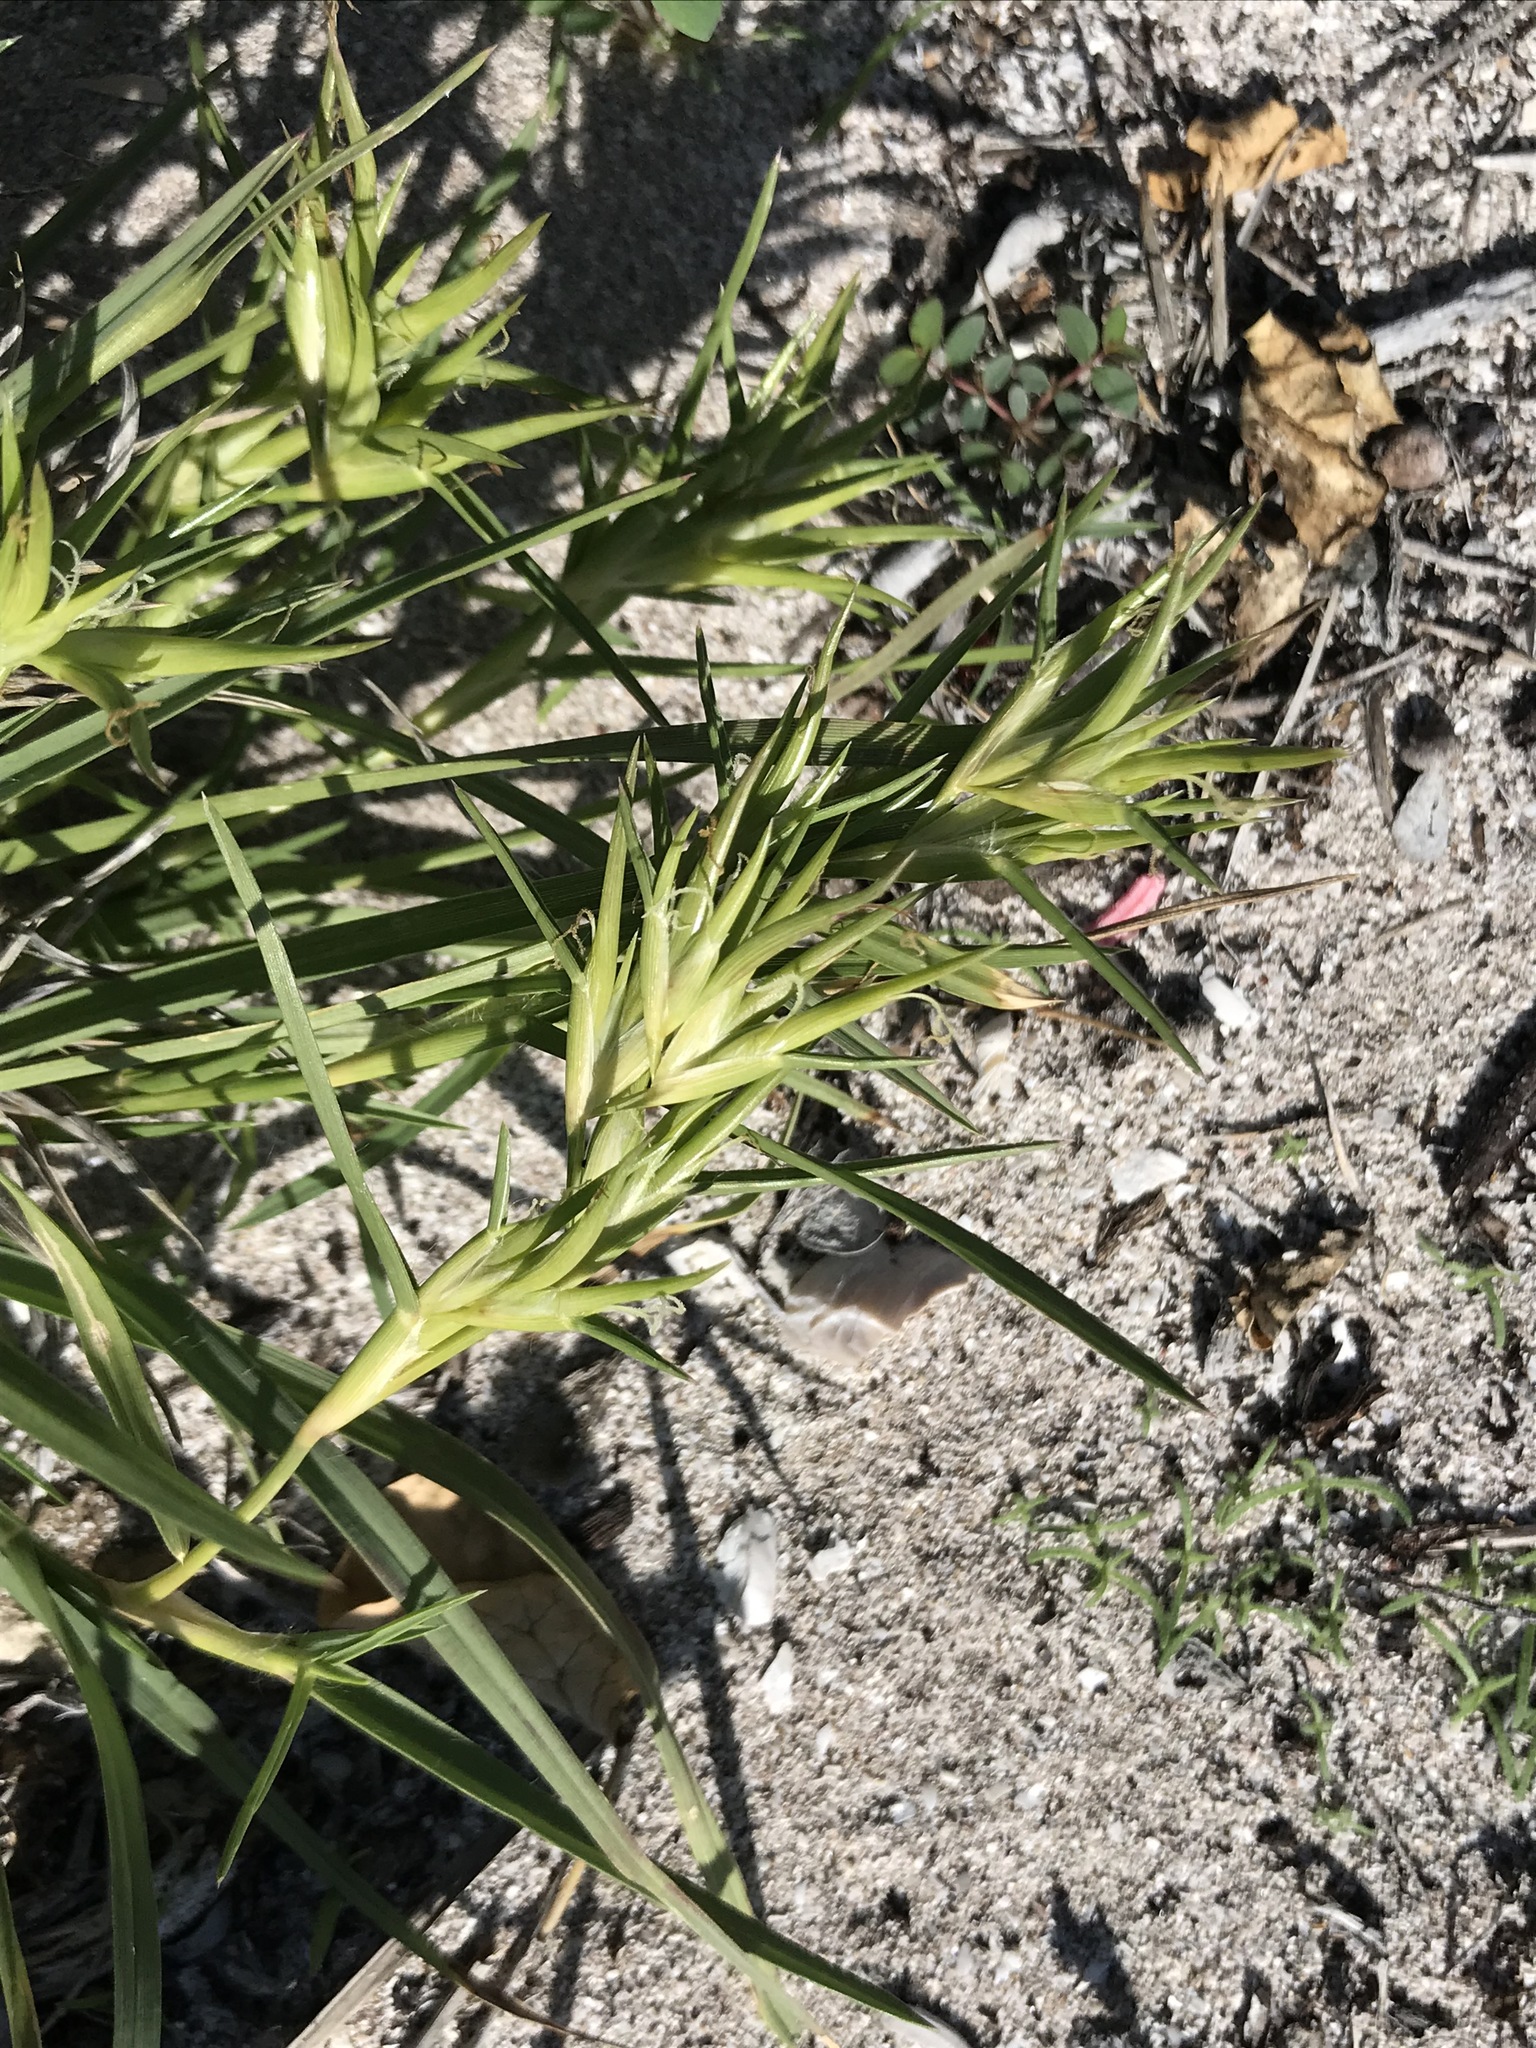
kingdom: Plantae
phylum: Tracheophyta
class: Liliopsida
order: Poales
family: Poaceae
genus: Jouvea
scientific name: Jouvea pilosa
